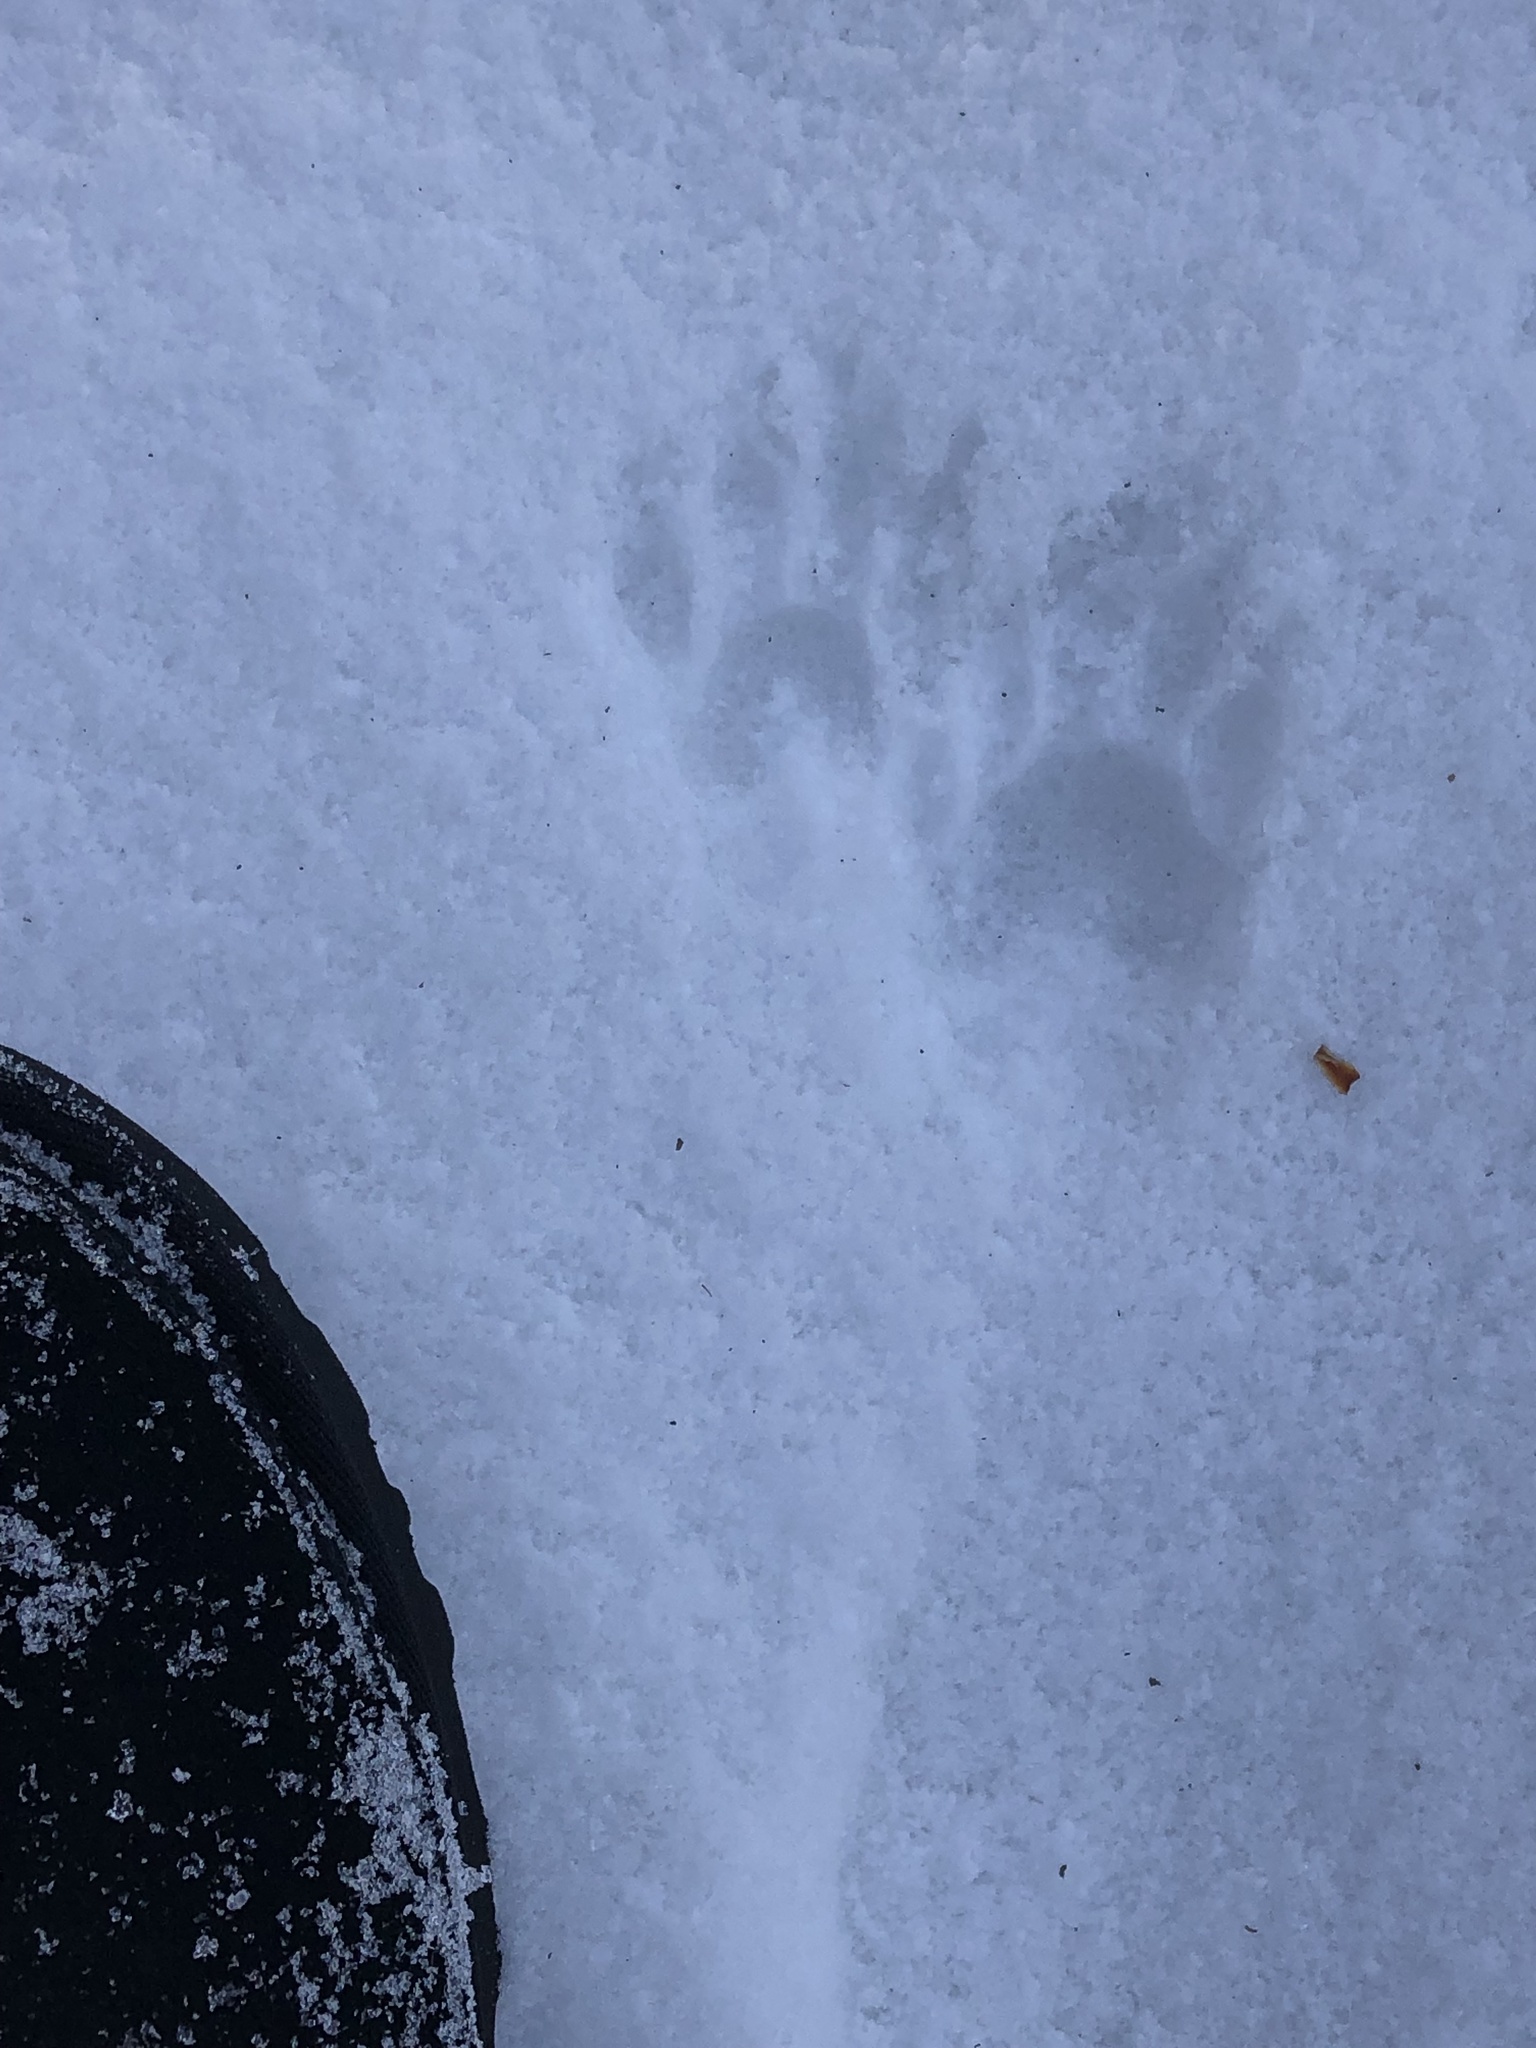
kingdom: Animalia
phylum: Chordata
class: Mammalia
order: Carnivora
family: Procyonidae
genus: Procyon
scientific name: Procyon lotor
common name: Raccoon
